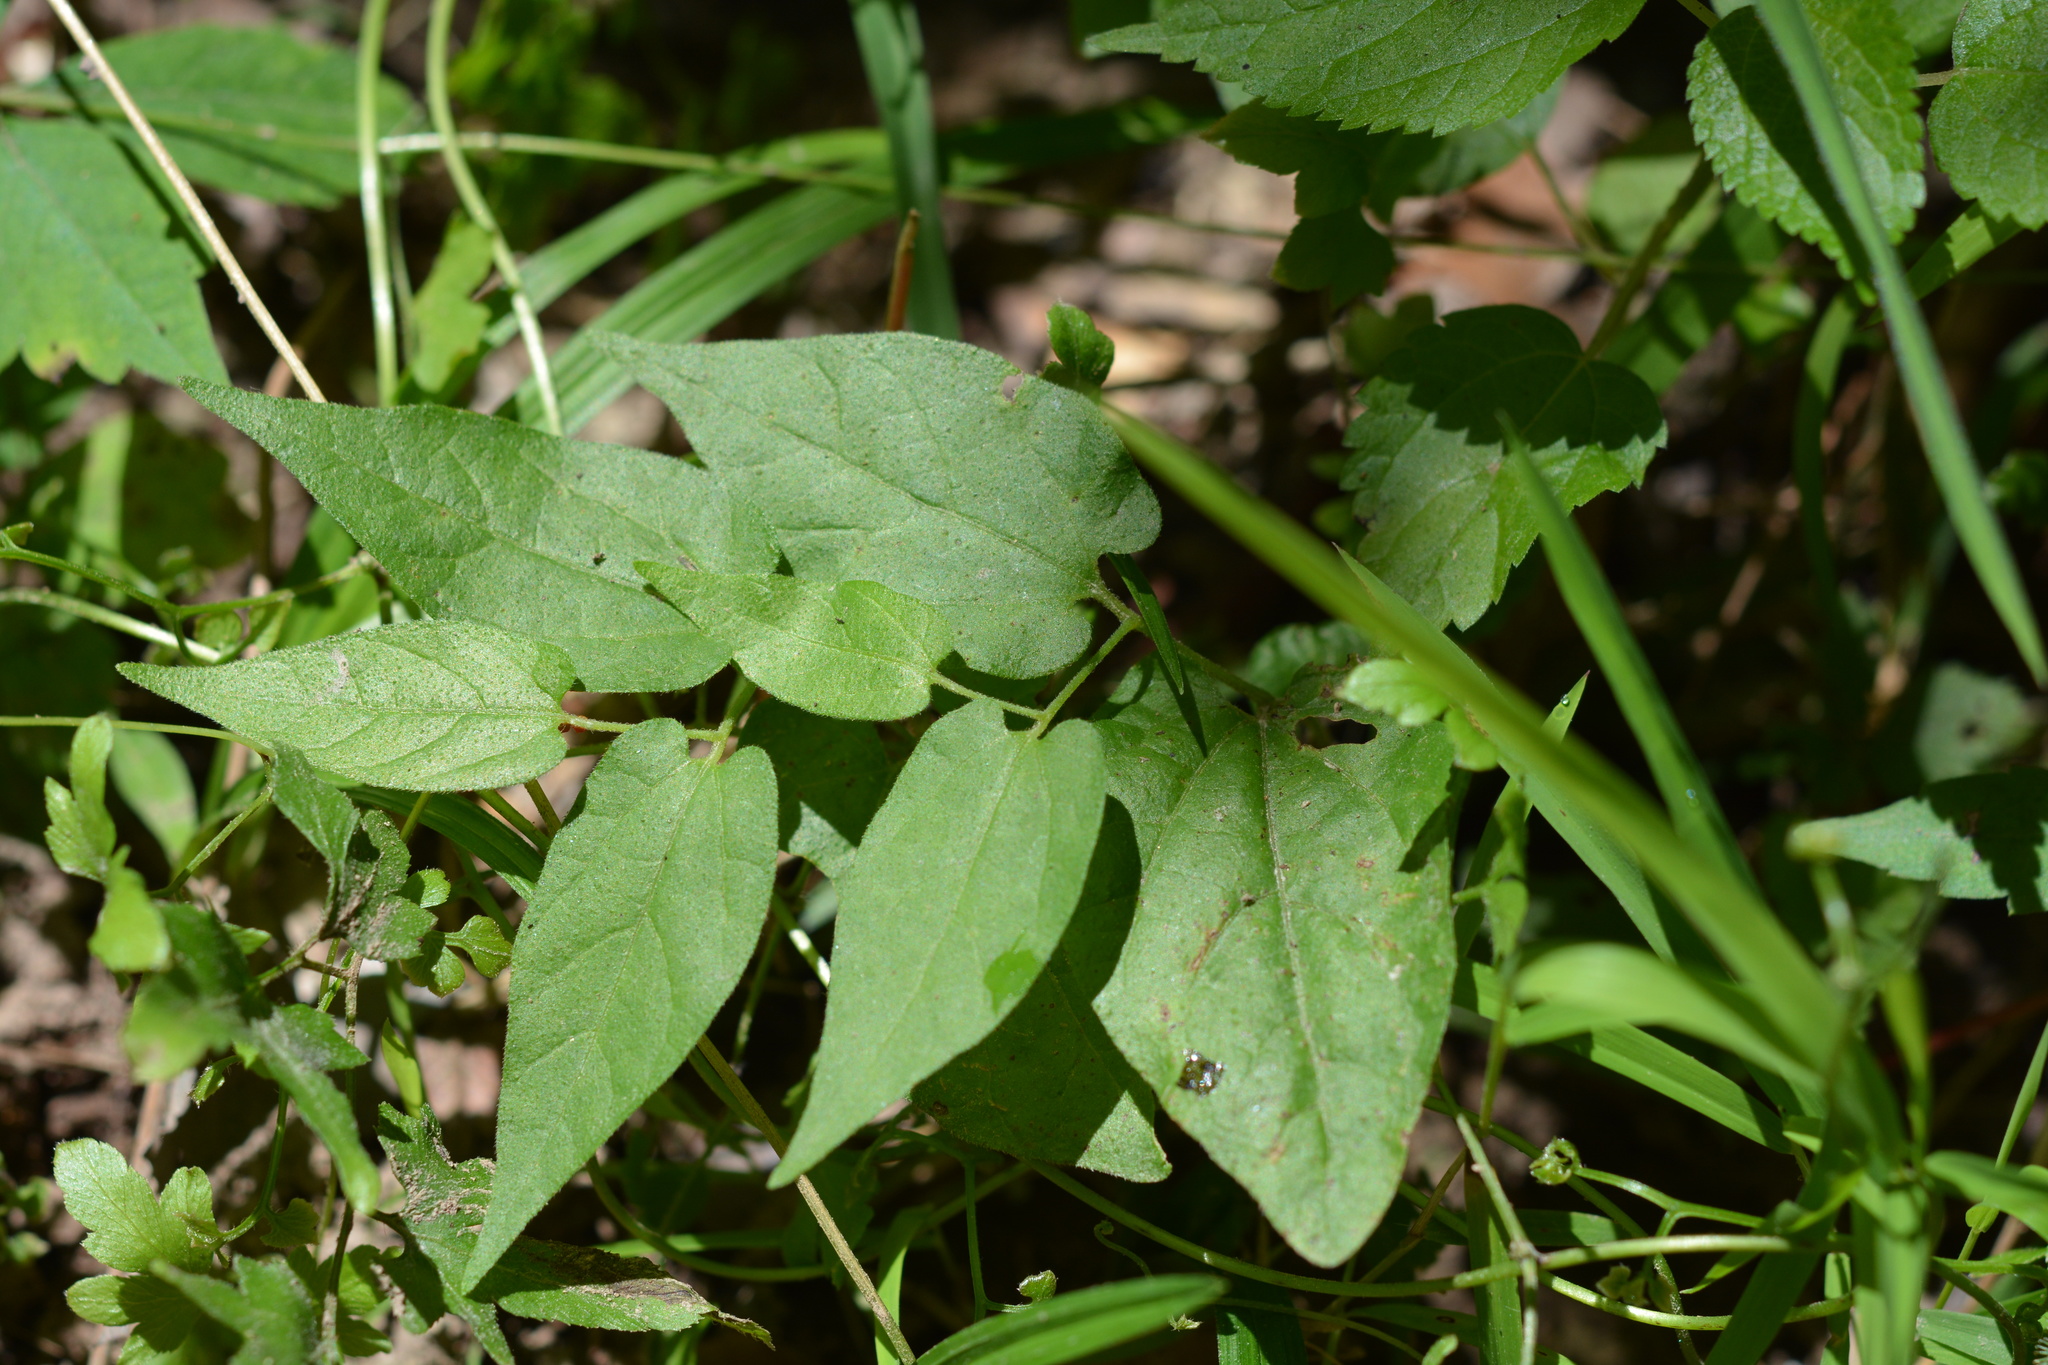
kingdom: Plantae
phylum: Tracheophyta
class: Magnoliopsida
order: Piperales
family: Aristolochiaceae
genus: Endodeca
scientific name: Endodeca serpentaria
